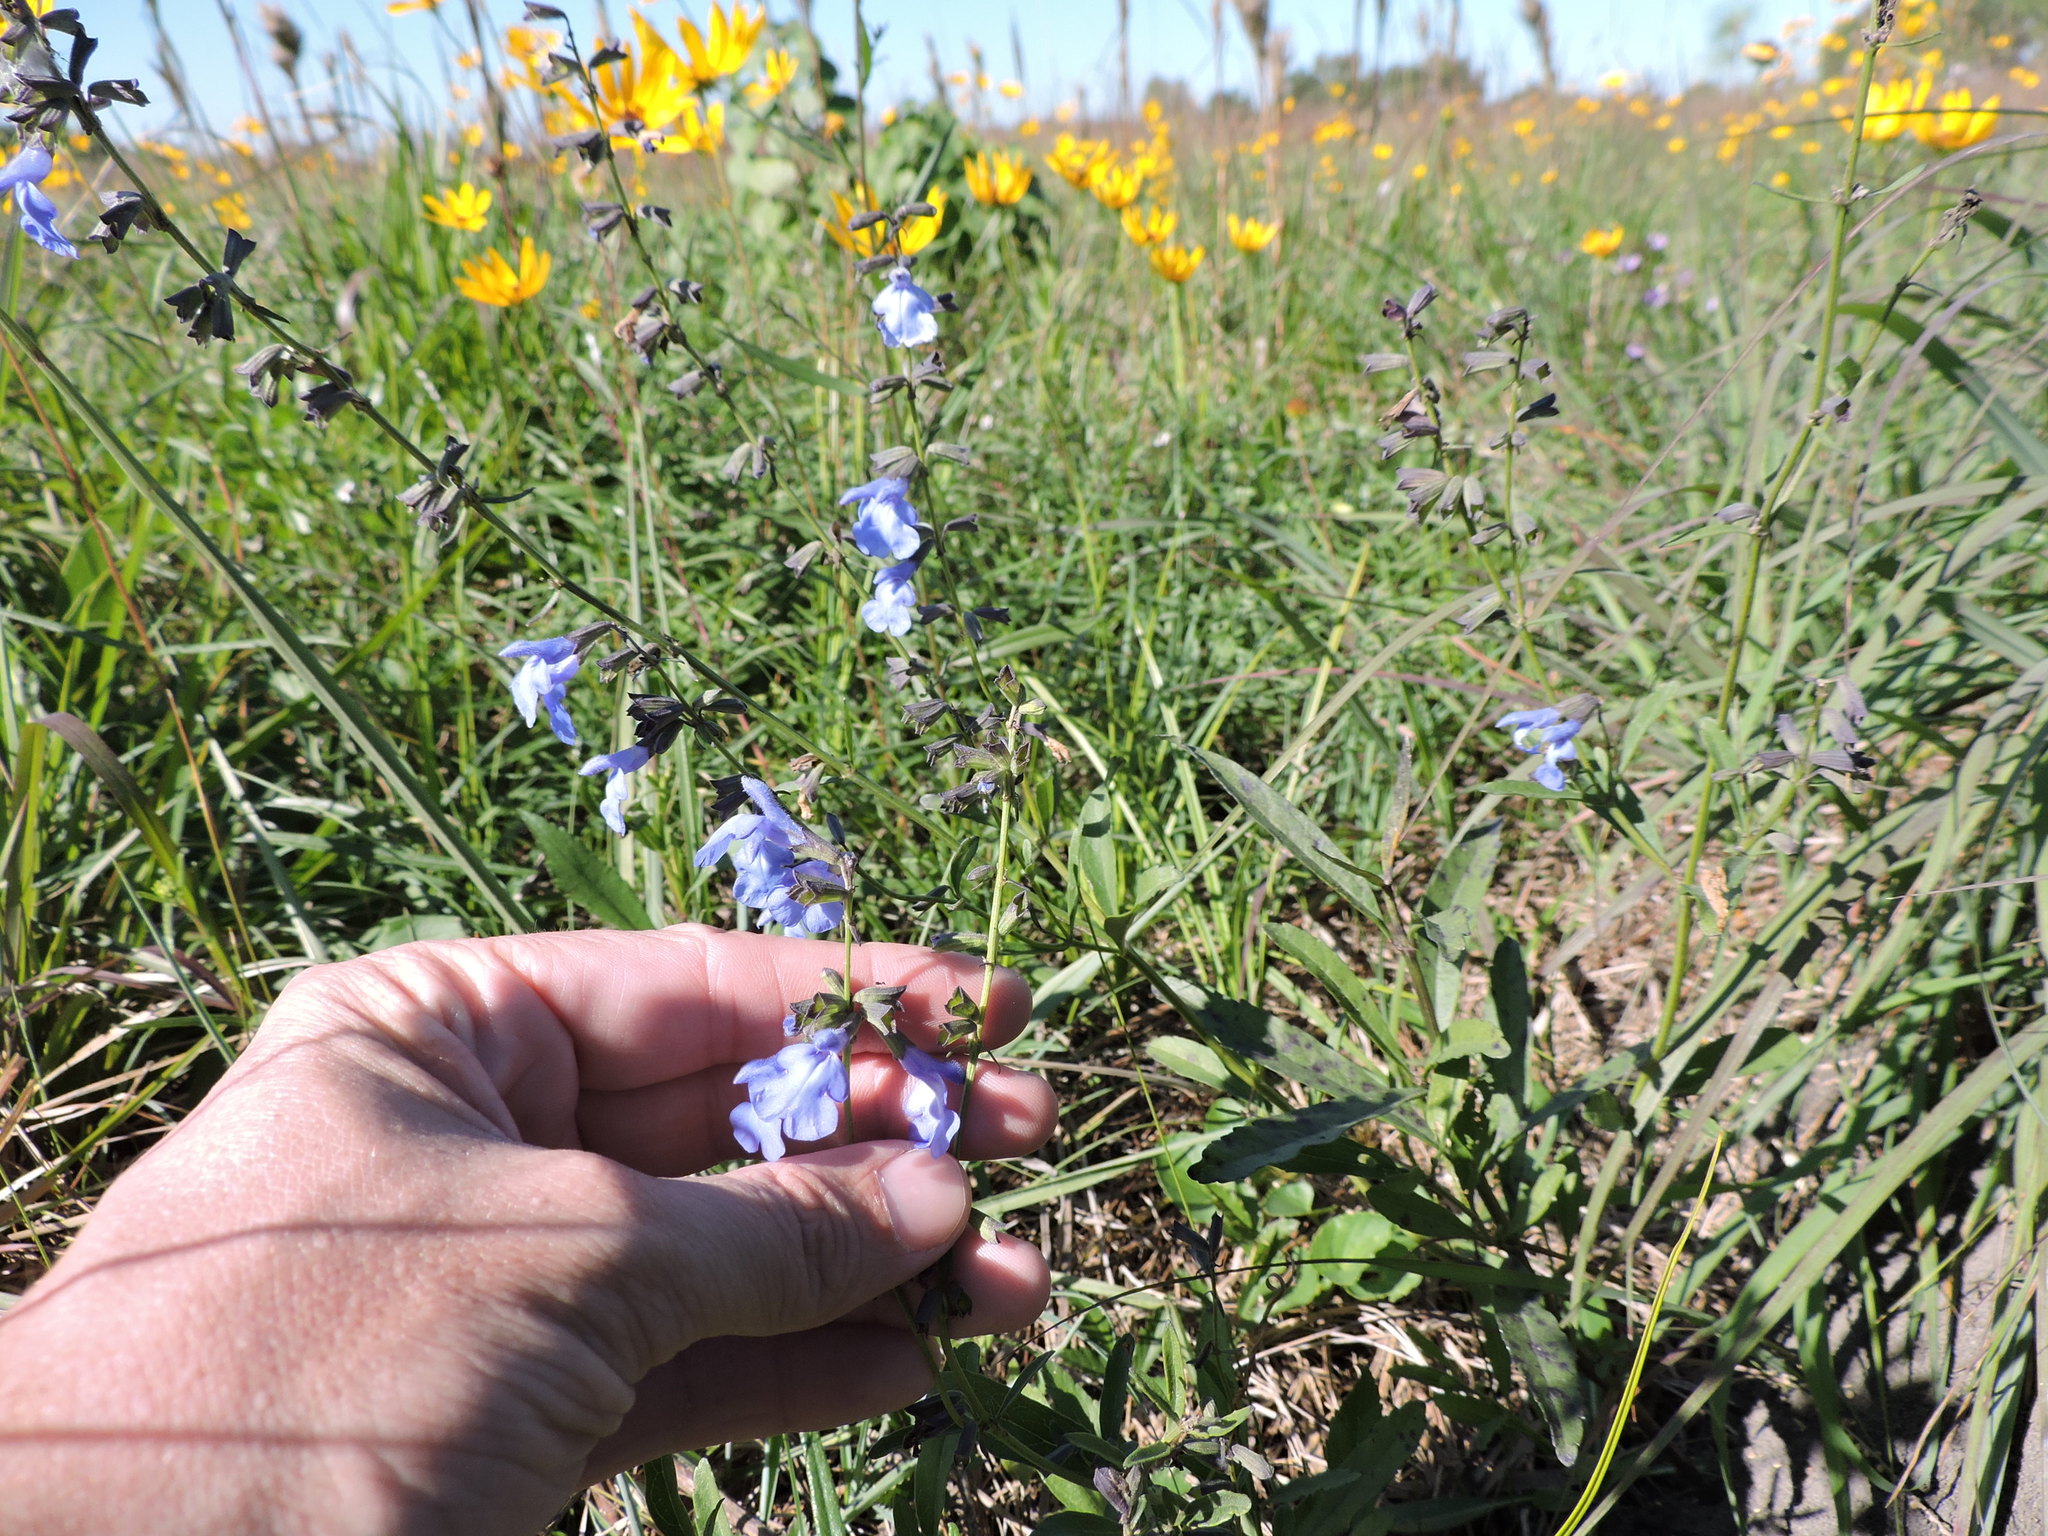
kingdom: Plantae
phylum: Tracheophyta
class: Magnoliopsida
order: Lamiales
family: Lamiaceae
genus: Salvia
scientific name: Salvia azurea
